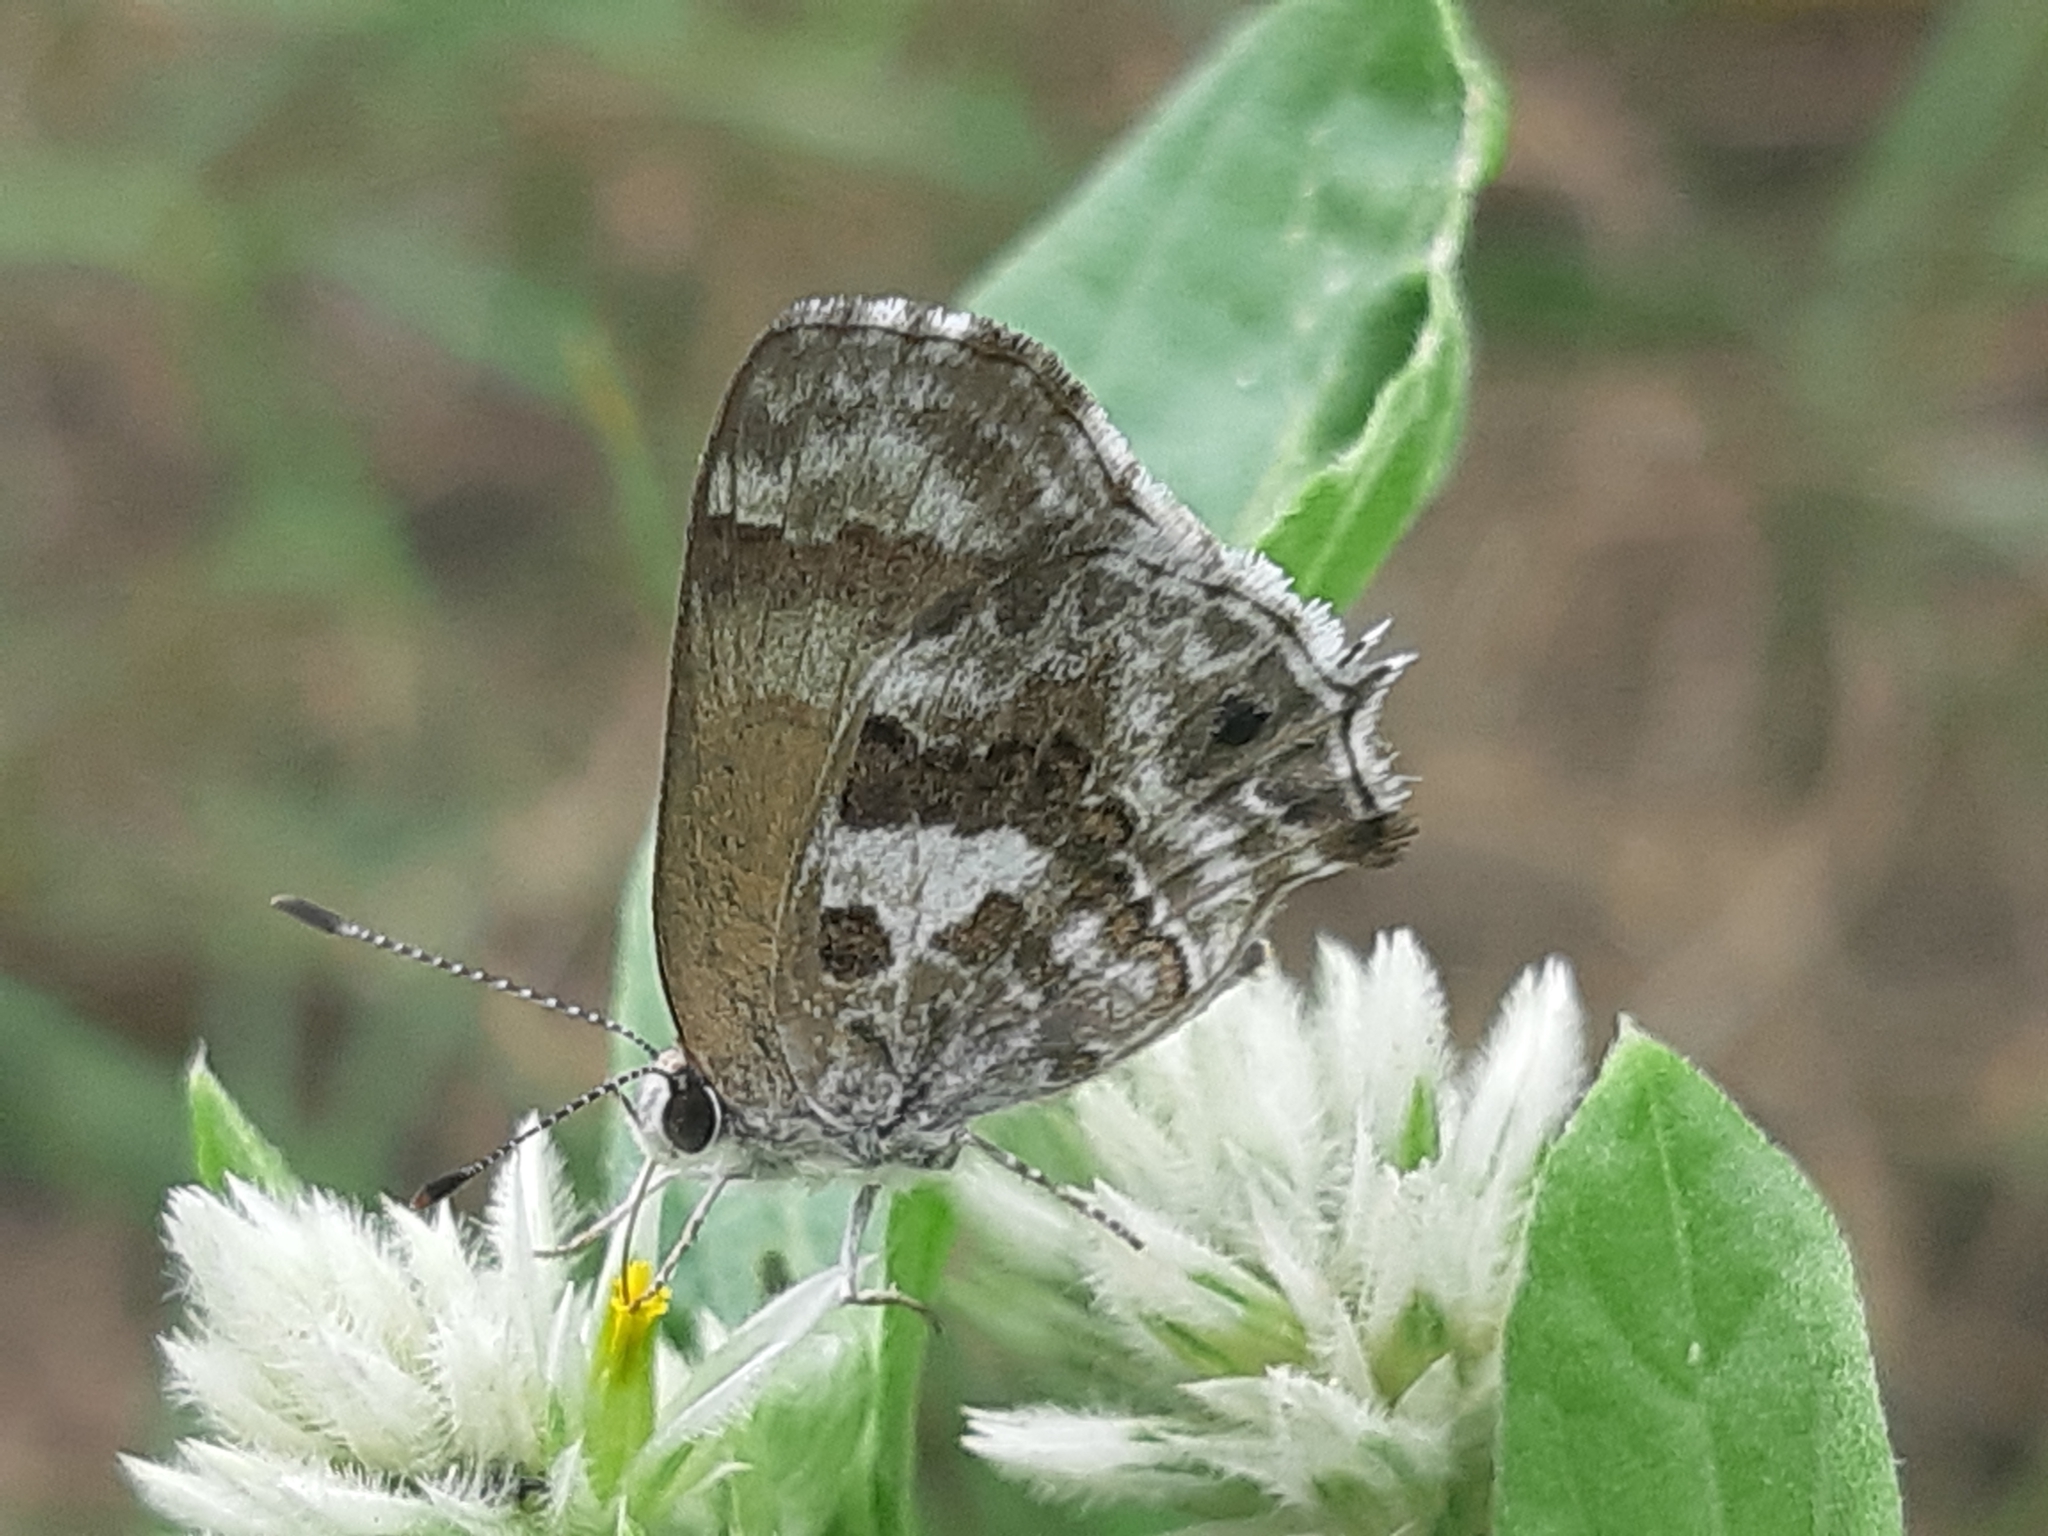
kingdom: Animalia
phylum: Arthropoda
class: Insecta
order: Lepidoptera
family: Lycaenidae
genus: Strymon
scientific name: Strymon
